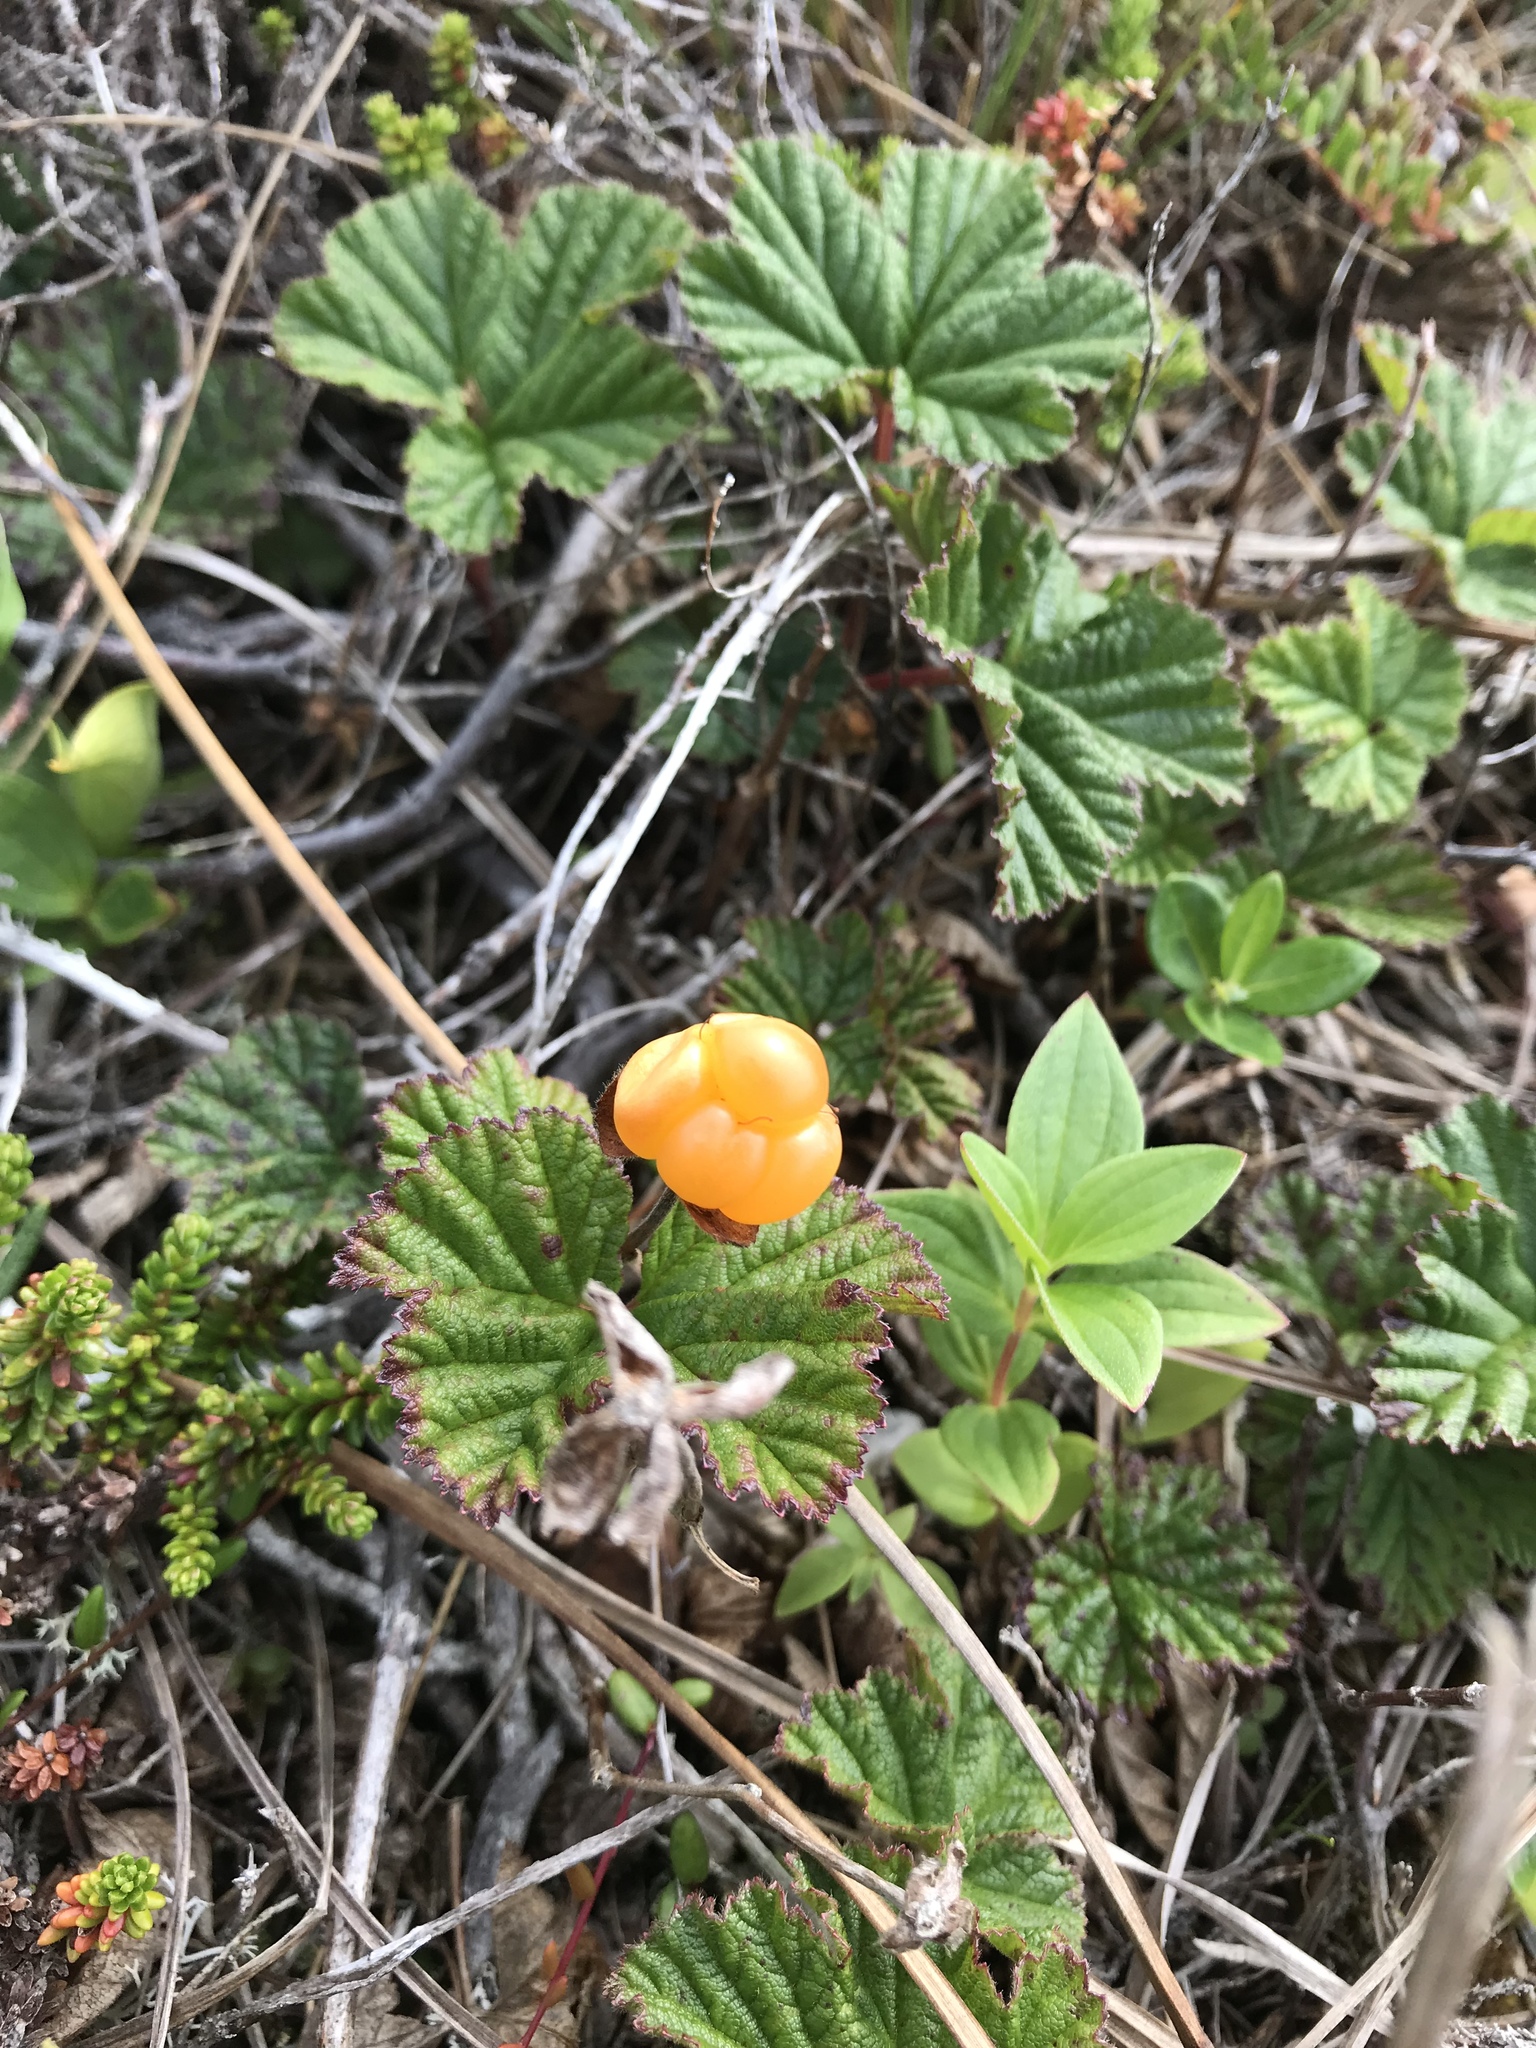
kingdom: Plantae
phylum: Tracheophyta
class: Magnoliopsida
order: Rosales
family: Rosaceae
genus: Rubus
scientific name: Rubus chamaemorus
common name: Cloudberry
